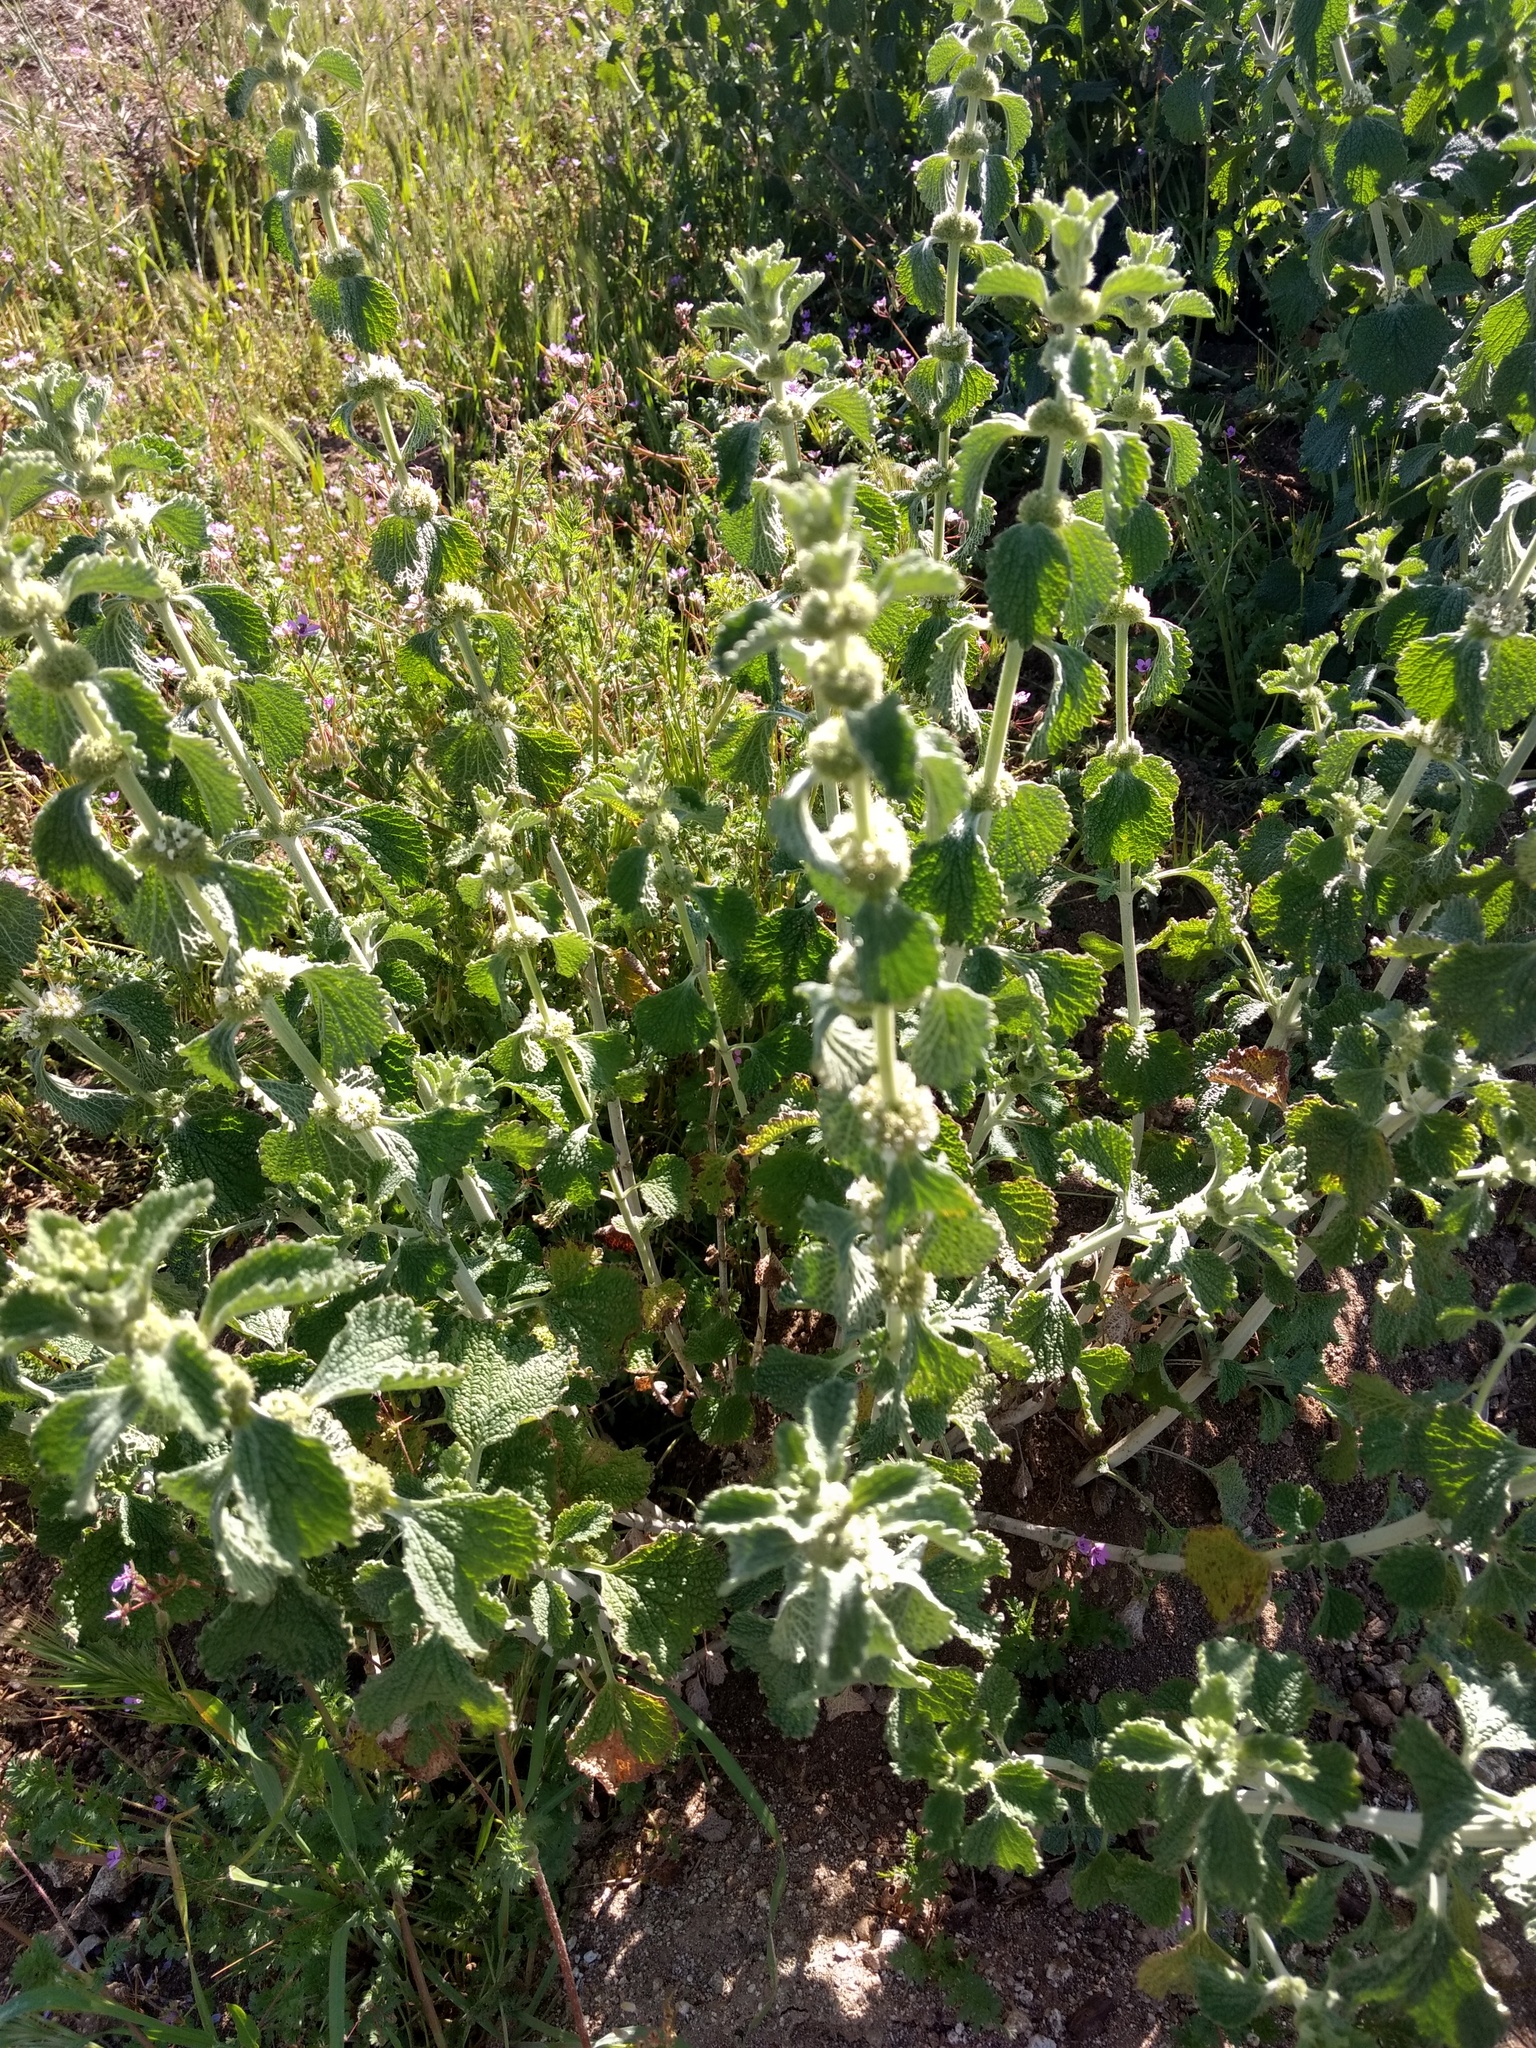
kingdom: Plantae
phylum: Tracheophyta
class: Magnoliopsida
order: Lamiales
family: Lamiaceae
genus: Marrubium
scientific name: Marrubium vulgare
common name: Horehound
